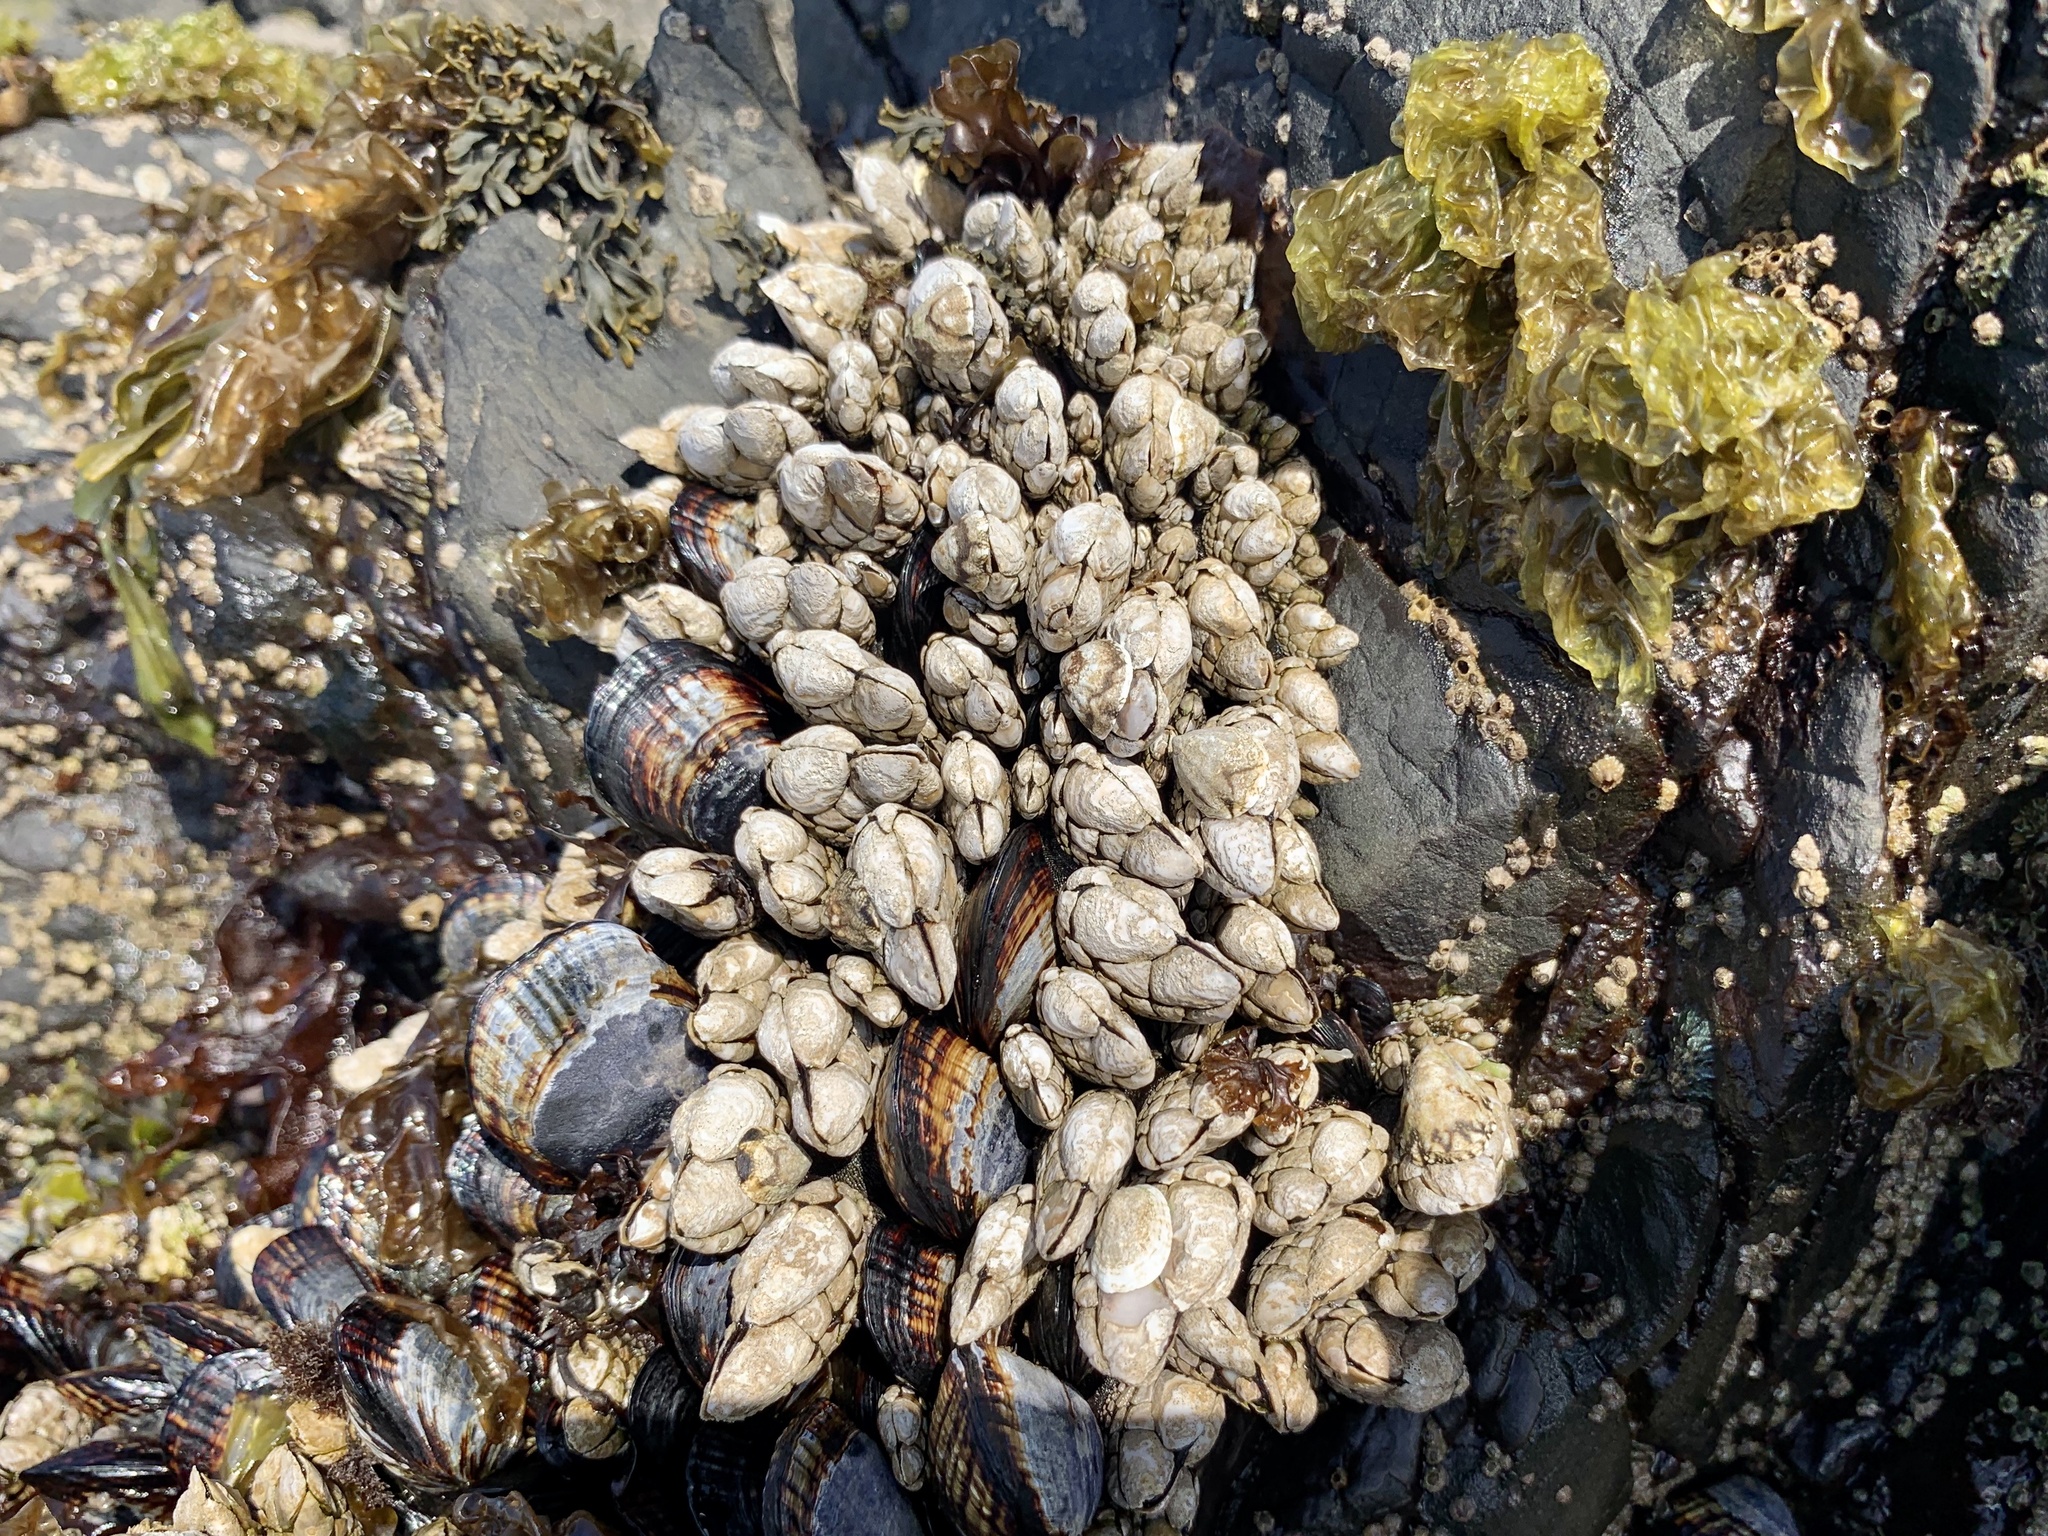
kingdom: Animalia
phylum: Arthropoda
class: Maxillopoda
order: Pedunculata
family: Pollicipedidae
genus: Pollicipes
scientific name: Pollicipes polymerus
